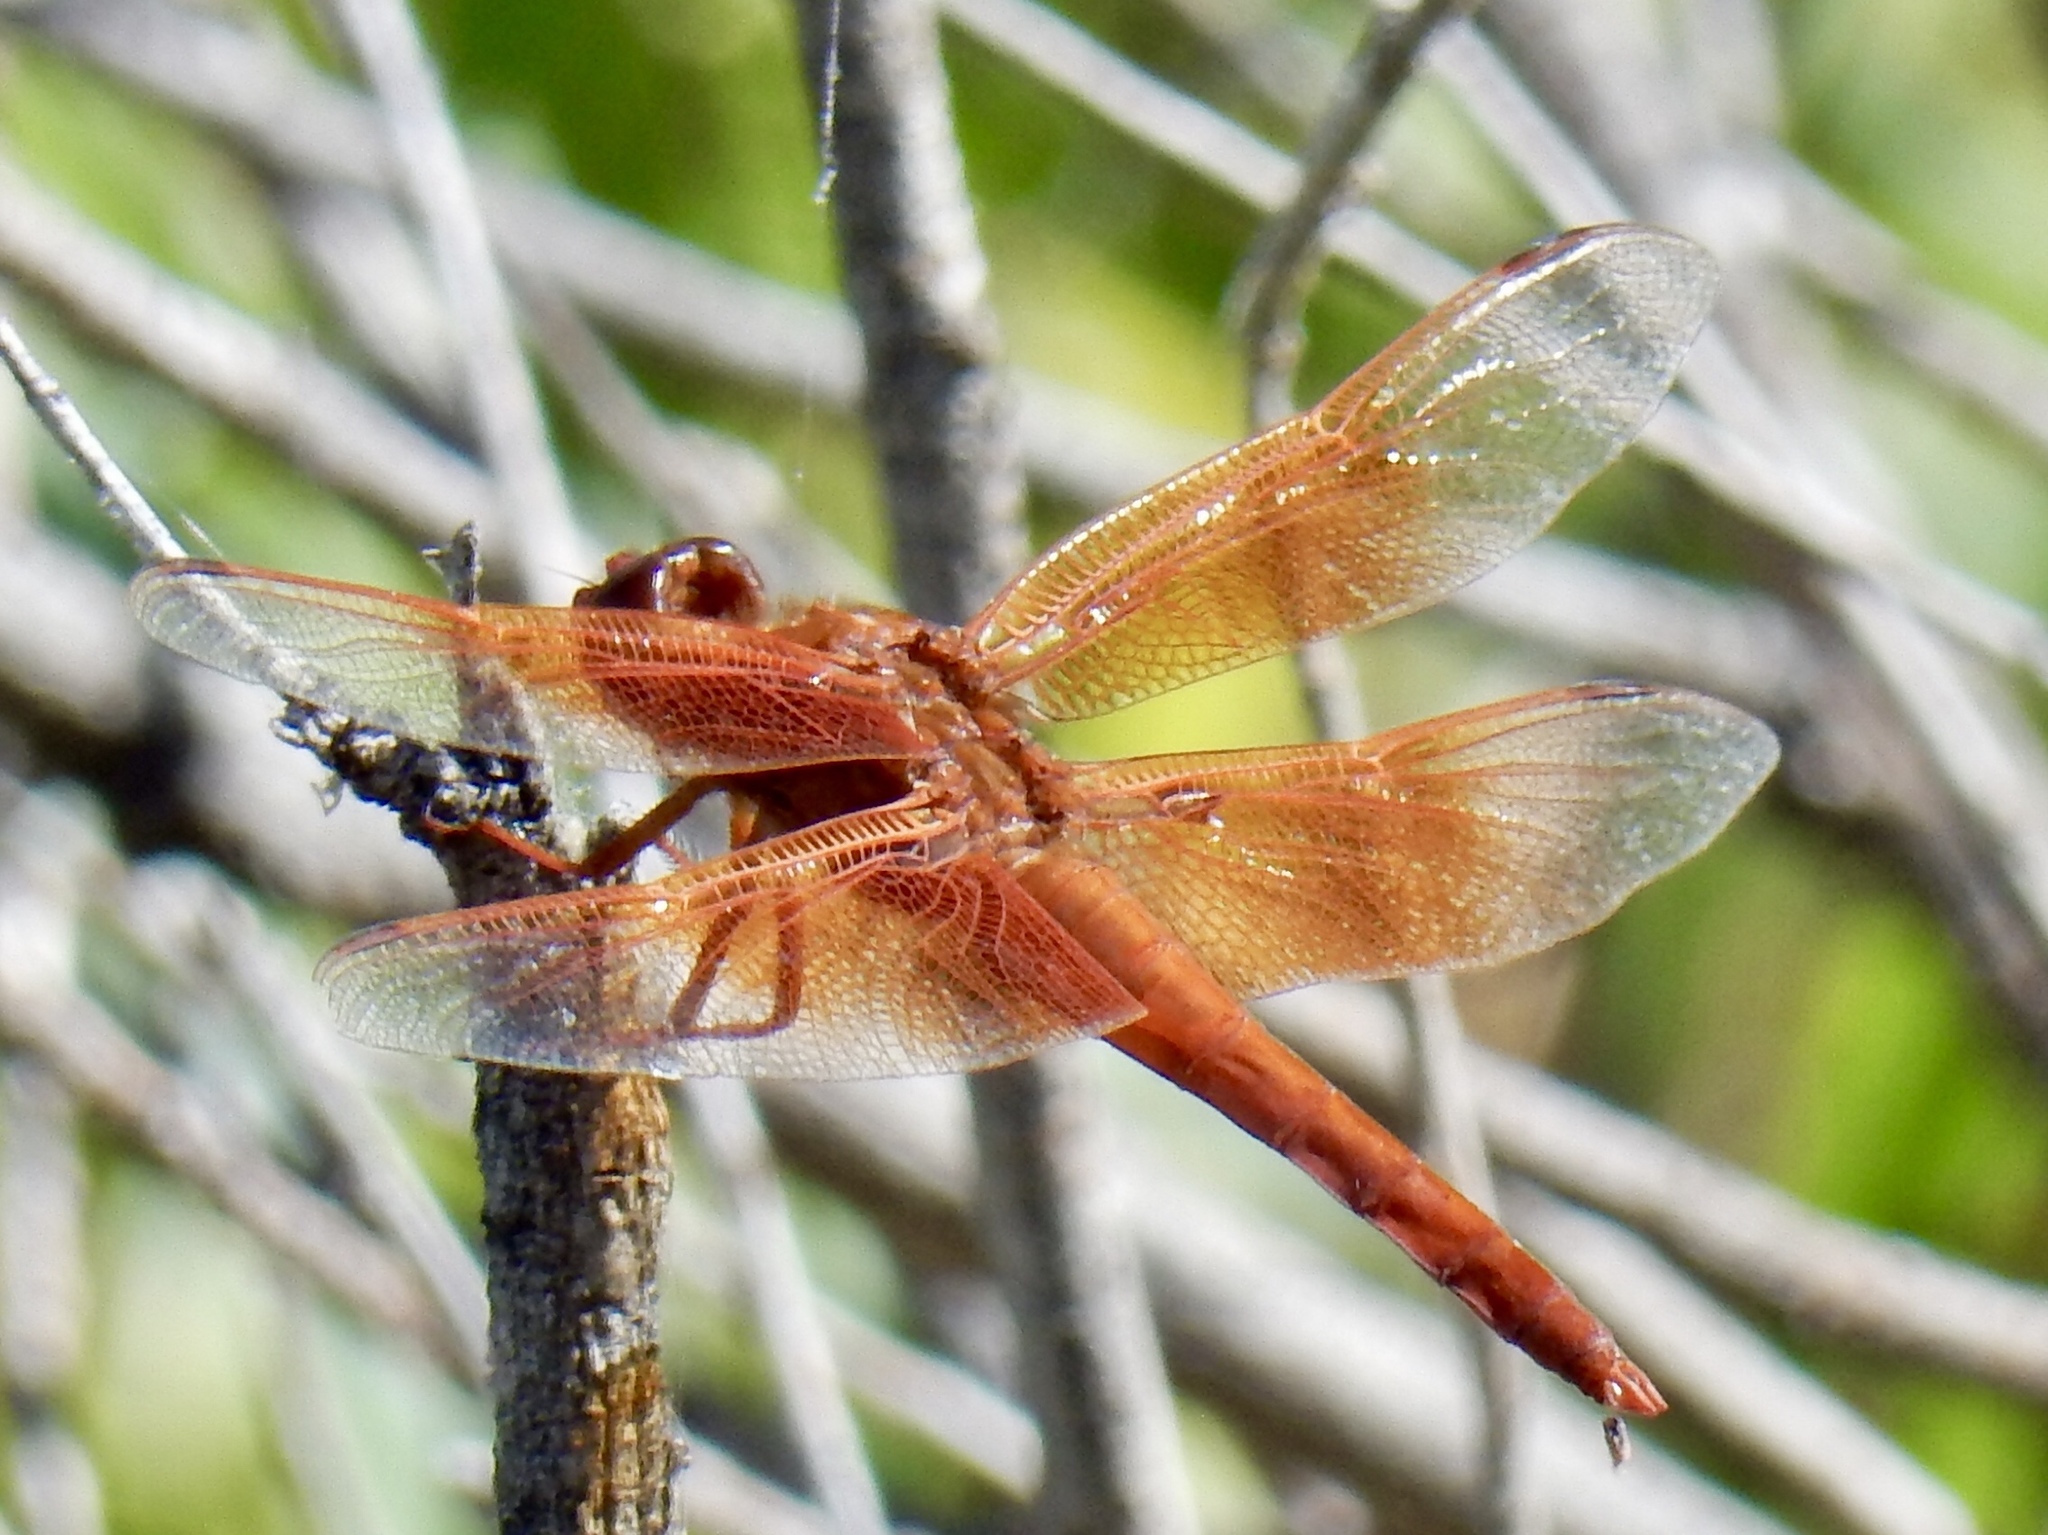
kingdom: Animalia
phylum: Arthropoda
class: Insecta
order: Odonata
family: Libellulidae
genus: Libellula
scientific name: Libellula saturata
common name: Flame skimmer
